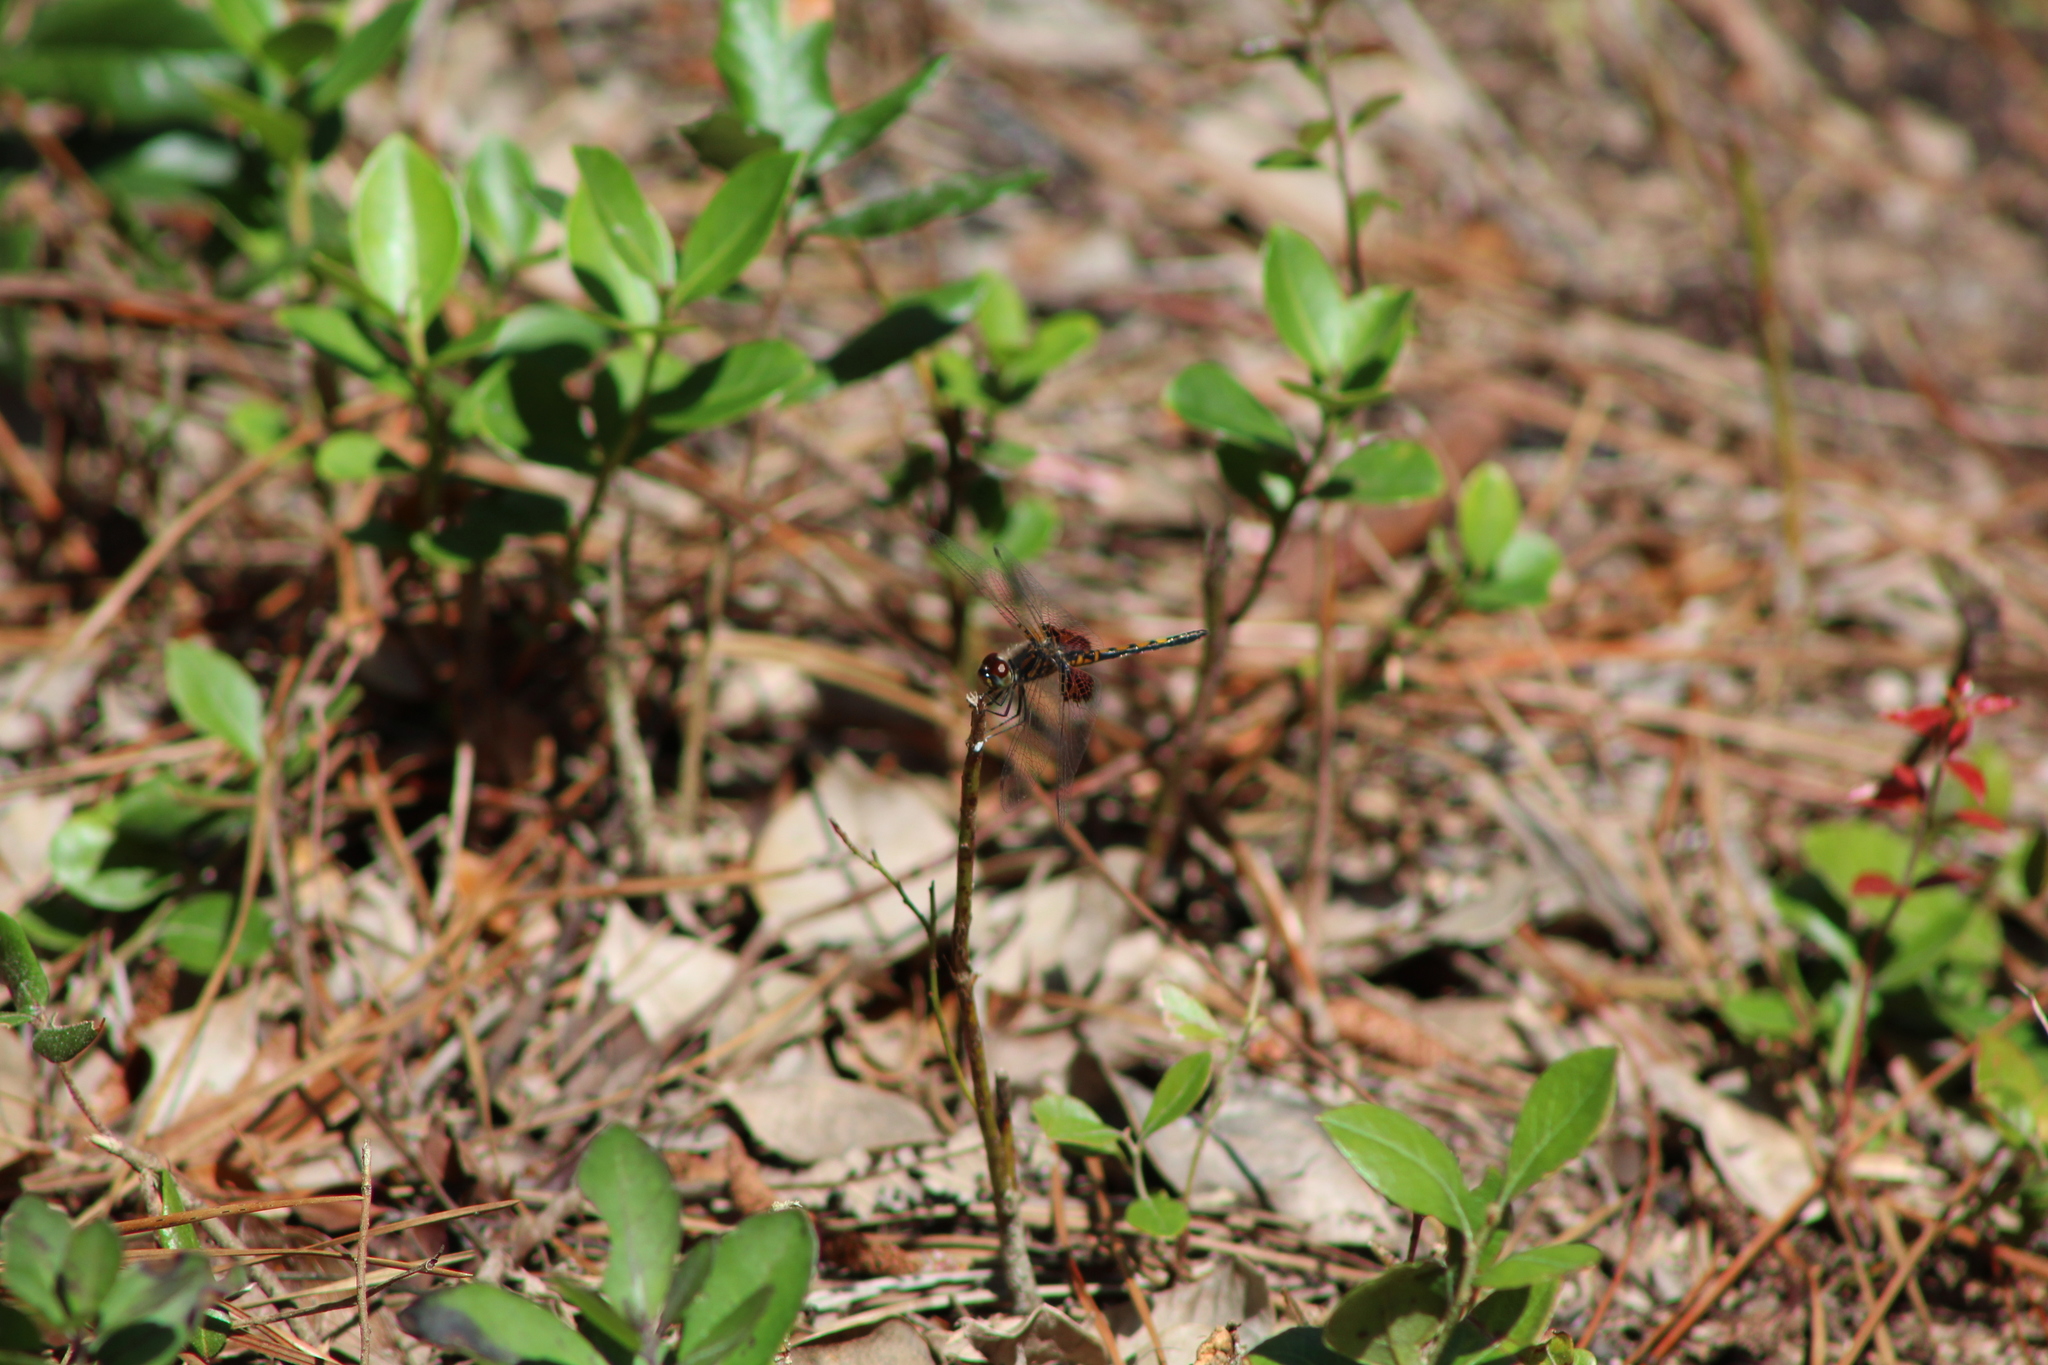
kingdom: Animalia
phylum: Arthropoda
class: Insecta
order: Odonata
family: Libellulidae
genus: Celithemis
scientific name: Celithemis ornata
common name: Ornate pennant
